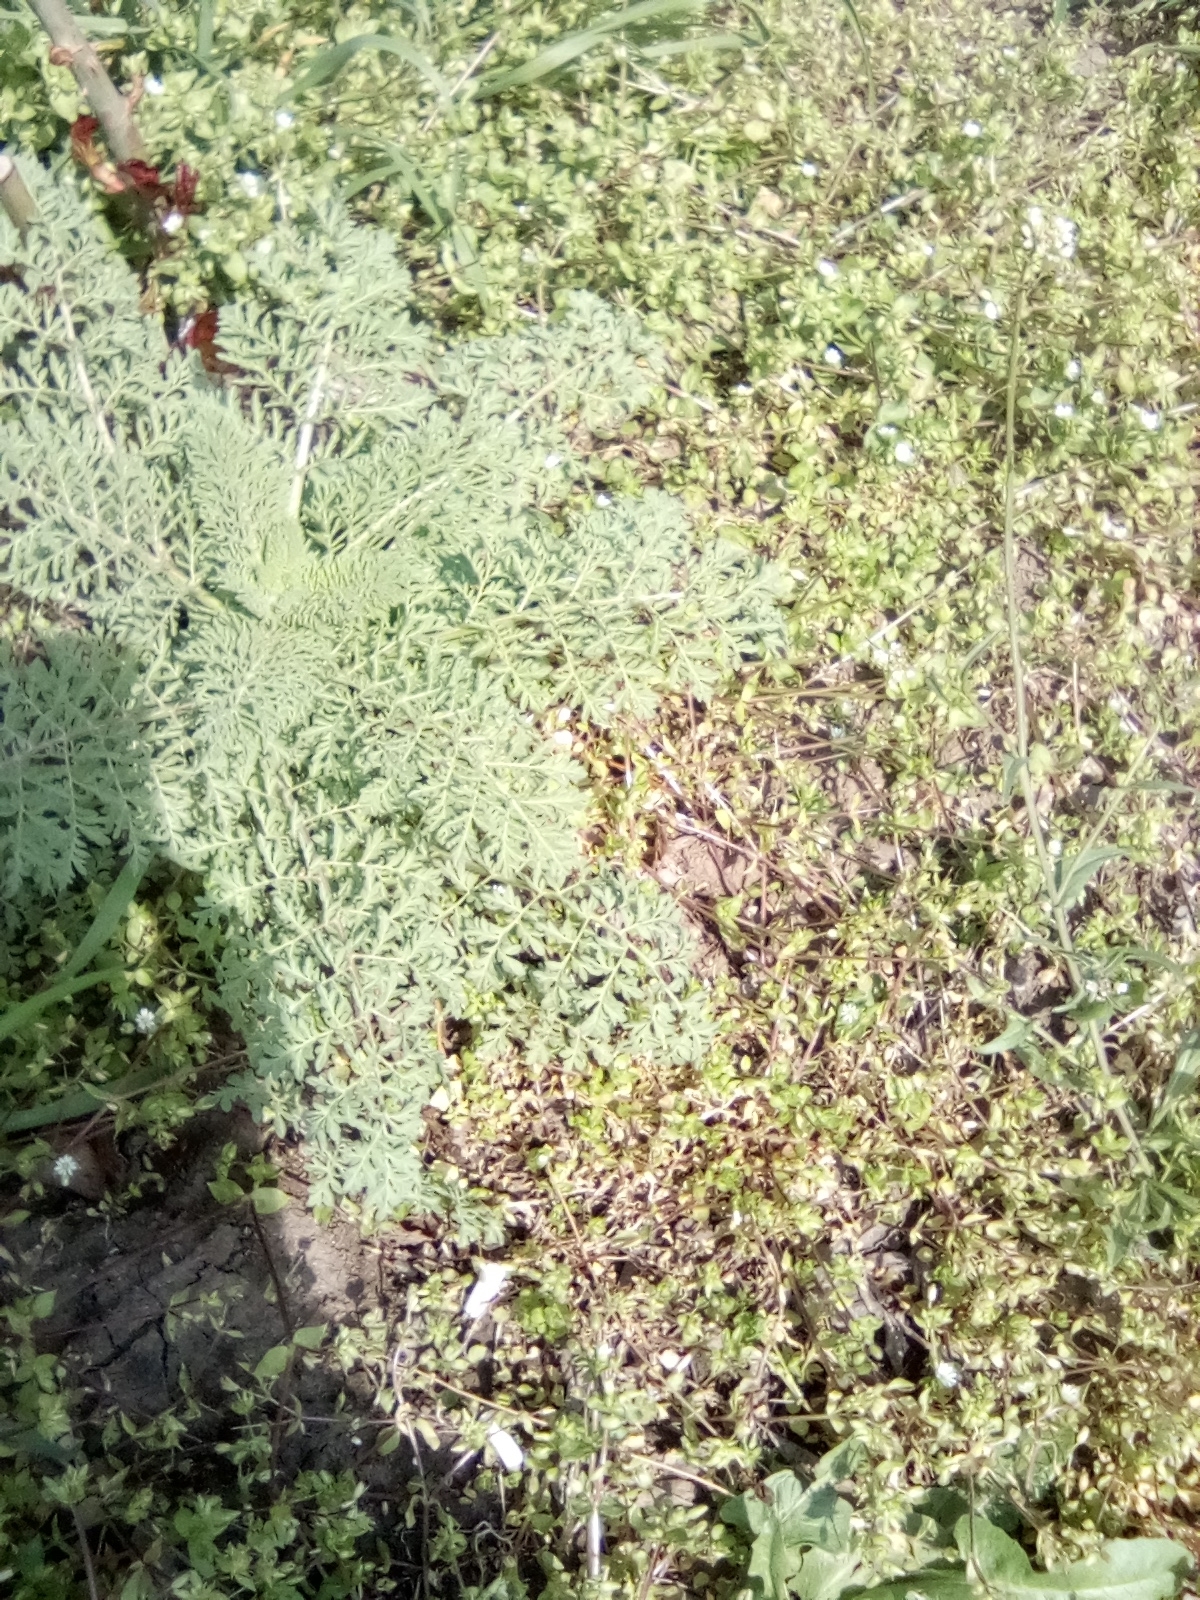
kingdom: Plantae
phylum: Tracheophyta
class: Magnoliopsida
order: Brassicales
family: Brassicaceae
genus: Descurainia
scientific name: Descurainia sophia
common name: Flixweed
